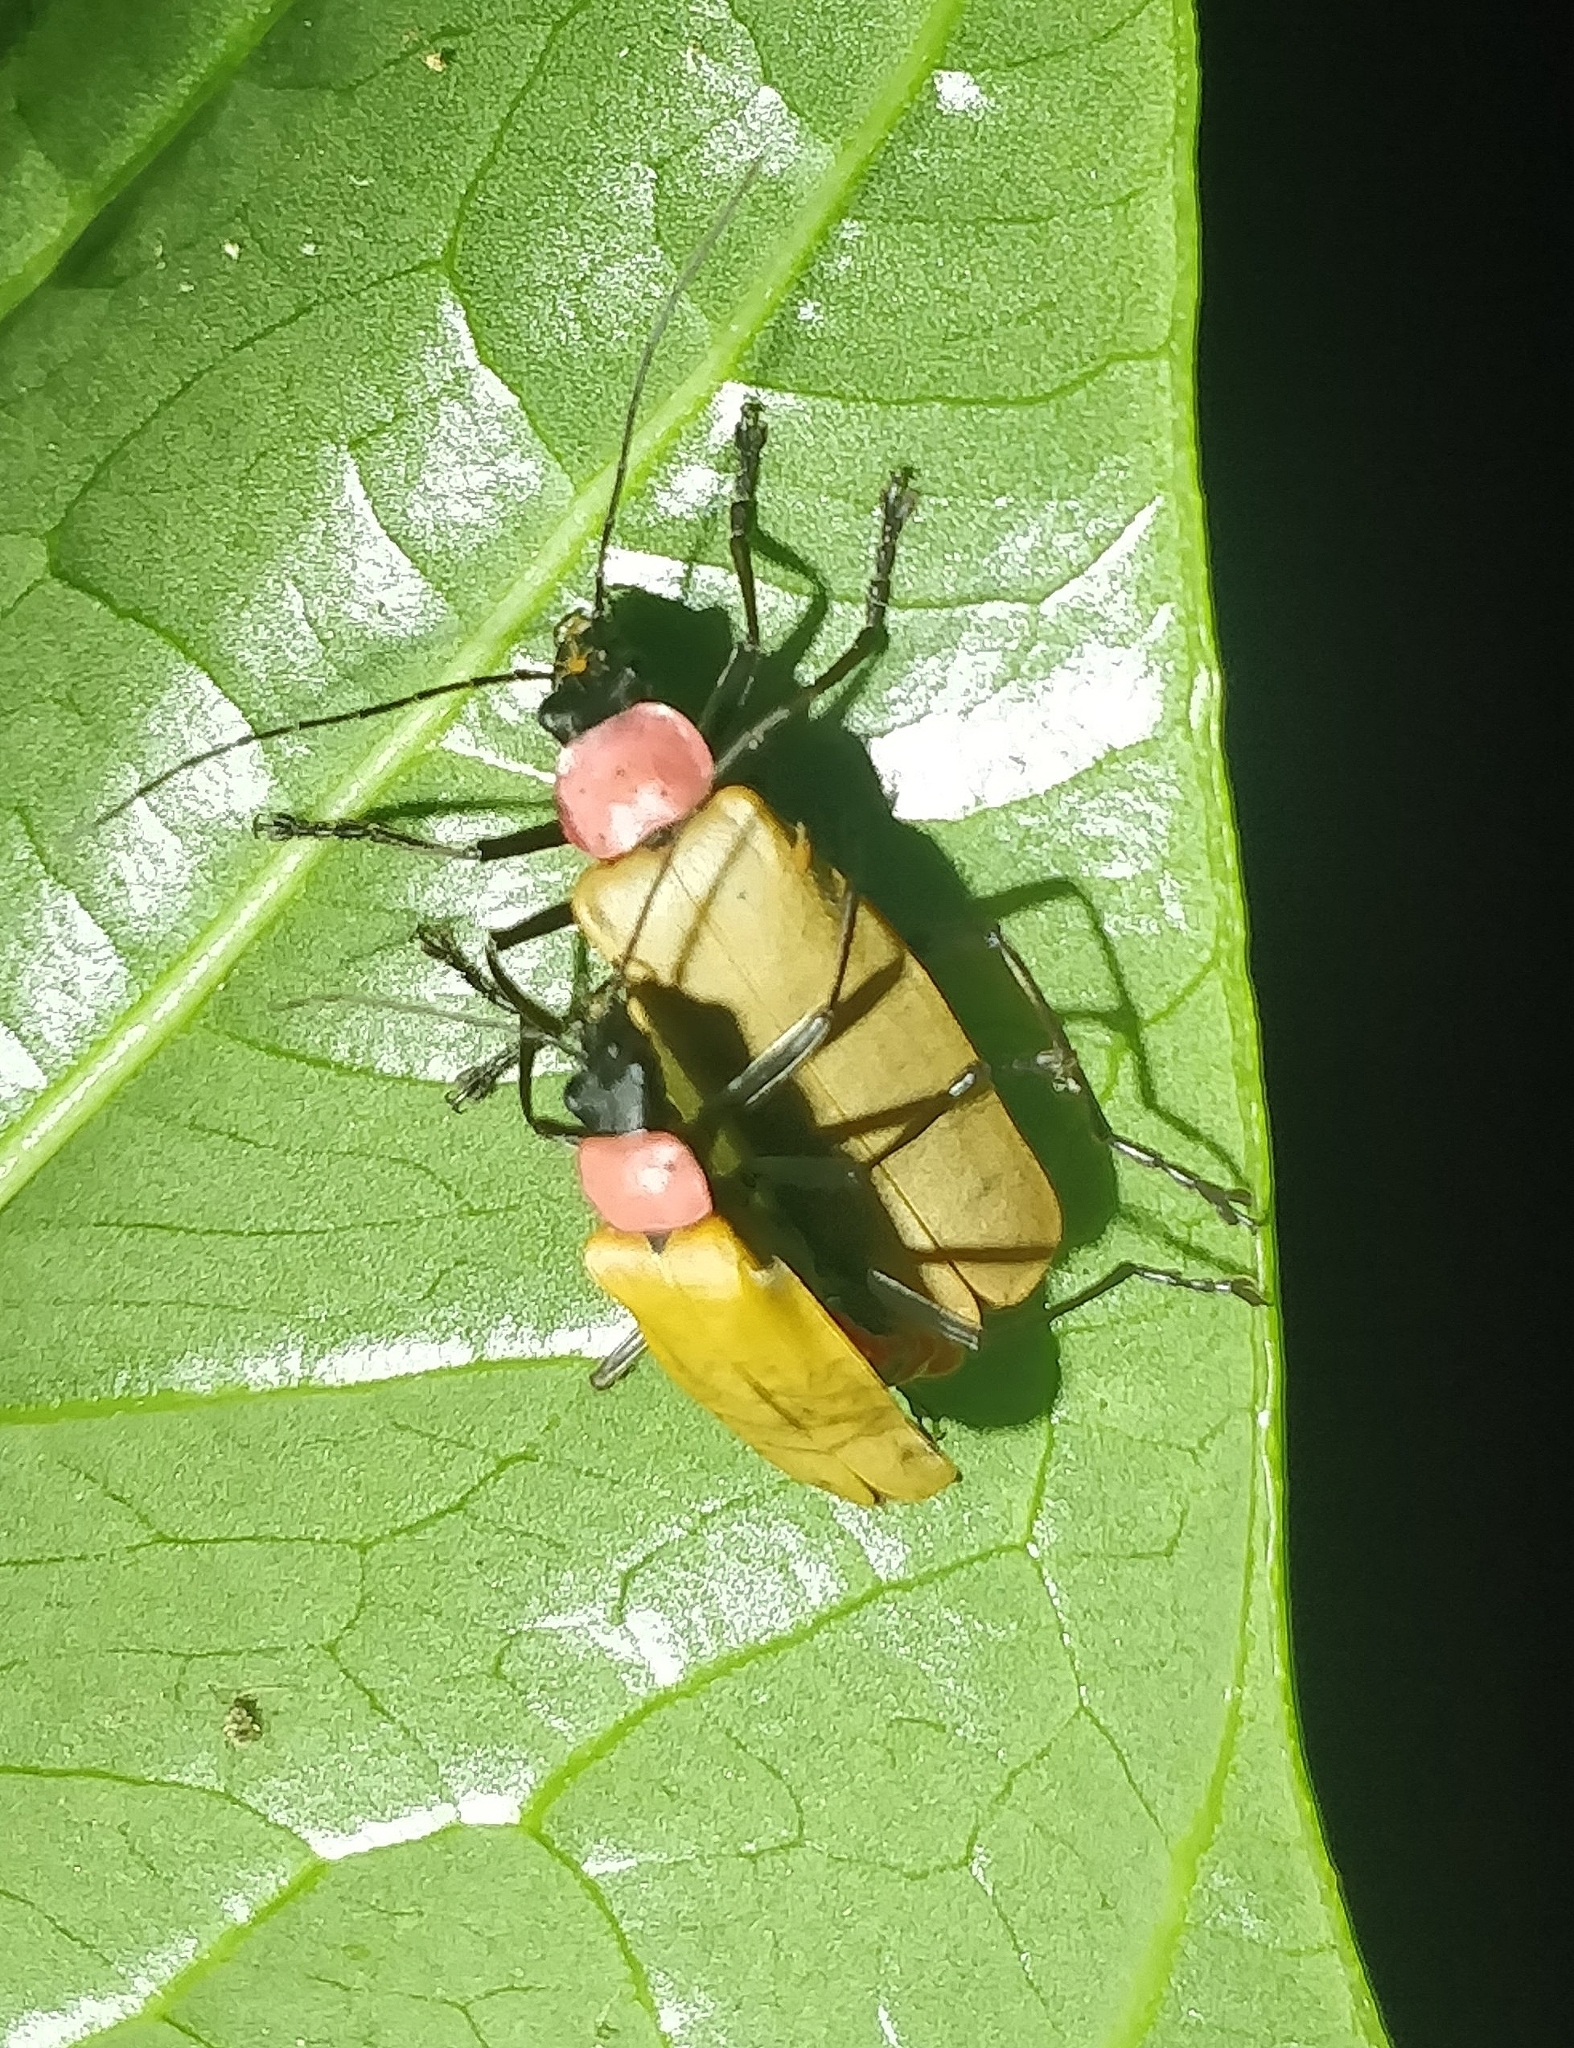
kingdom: Animalia
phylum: Arthropoda
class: Insecta
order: Coleoptera
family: Cantharidae
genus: Chauliognathus
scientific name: Chauliognathus
